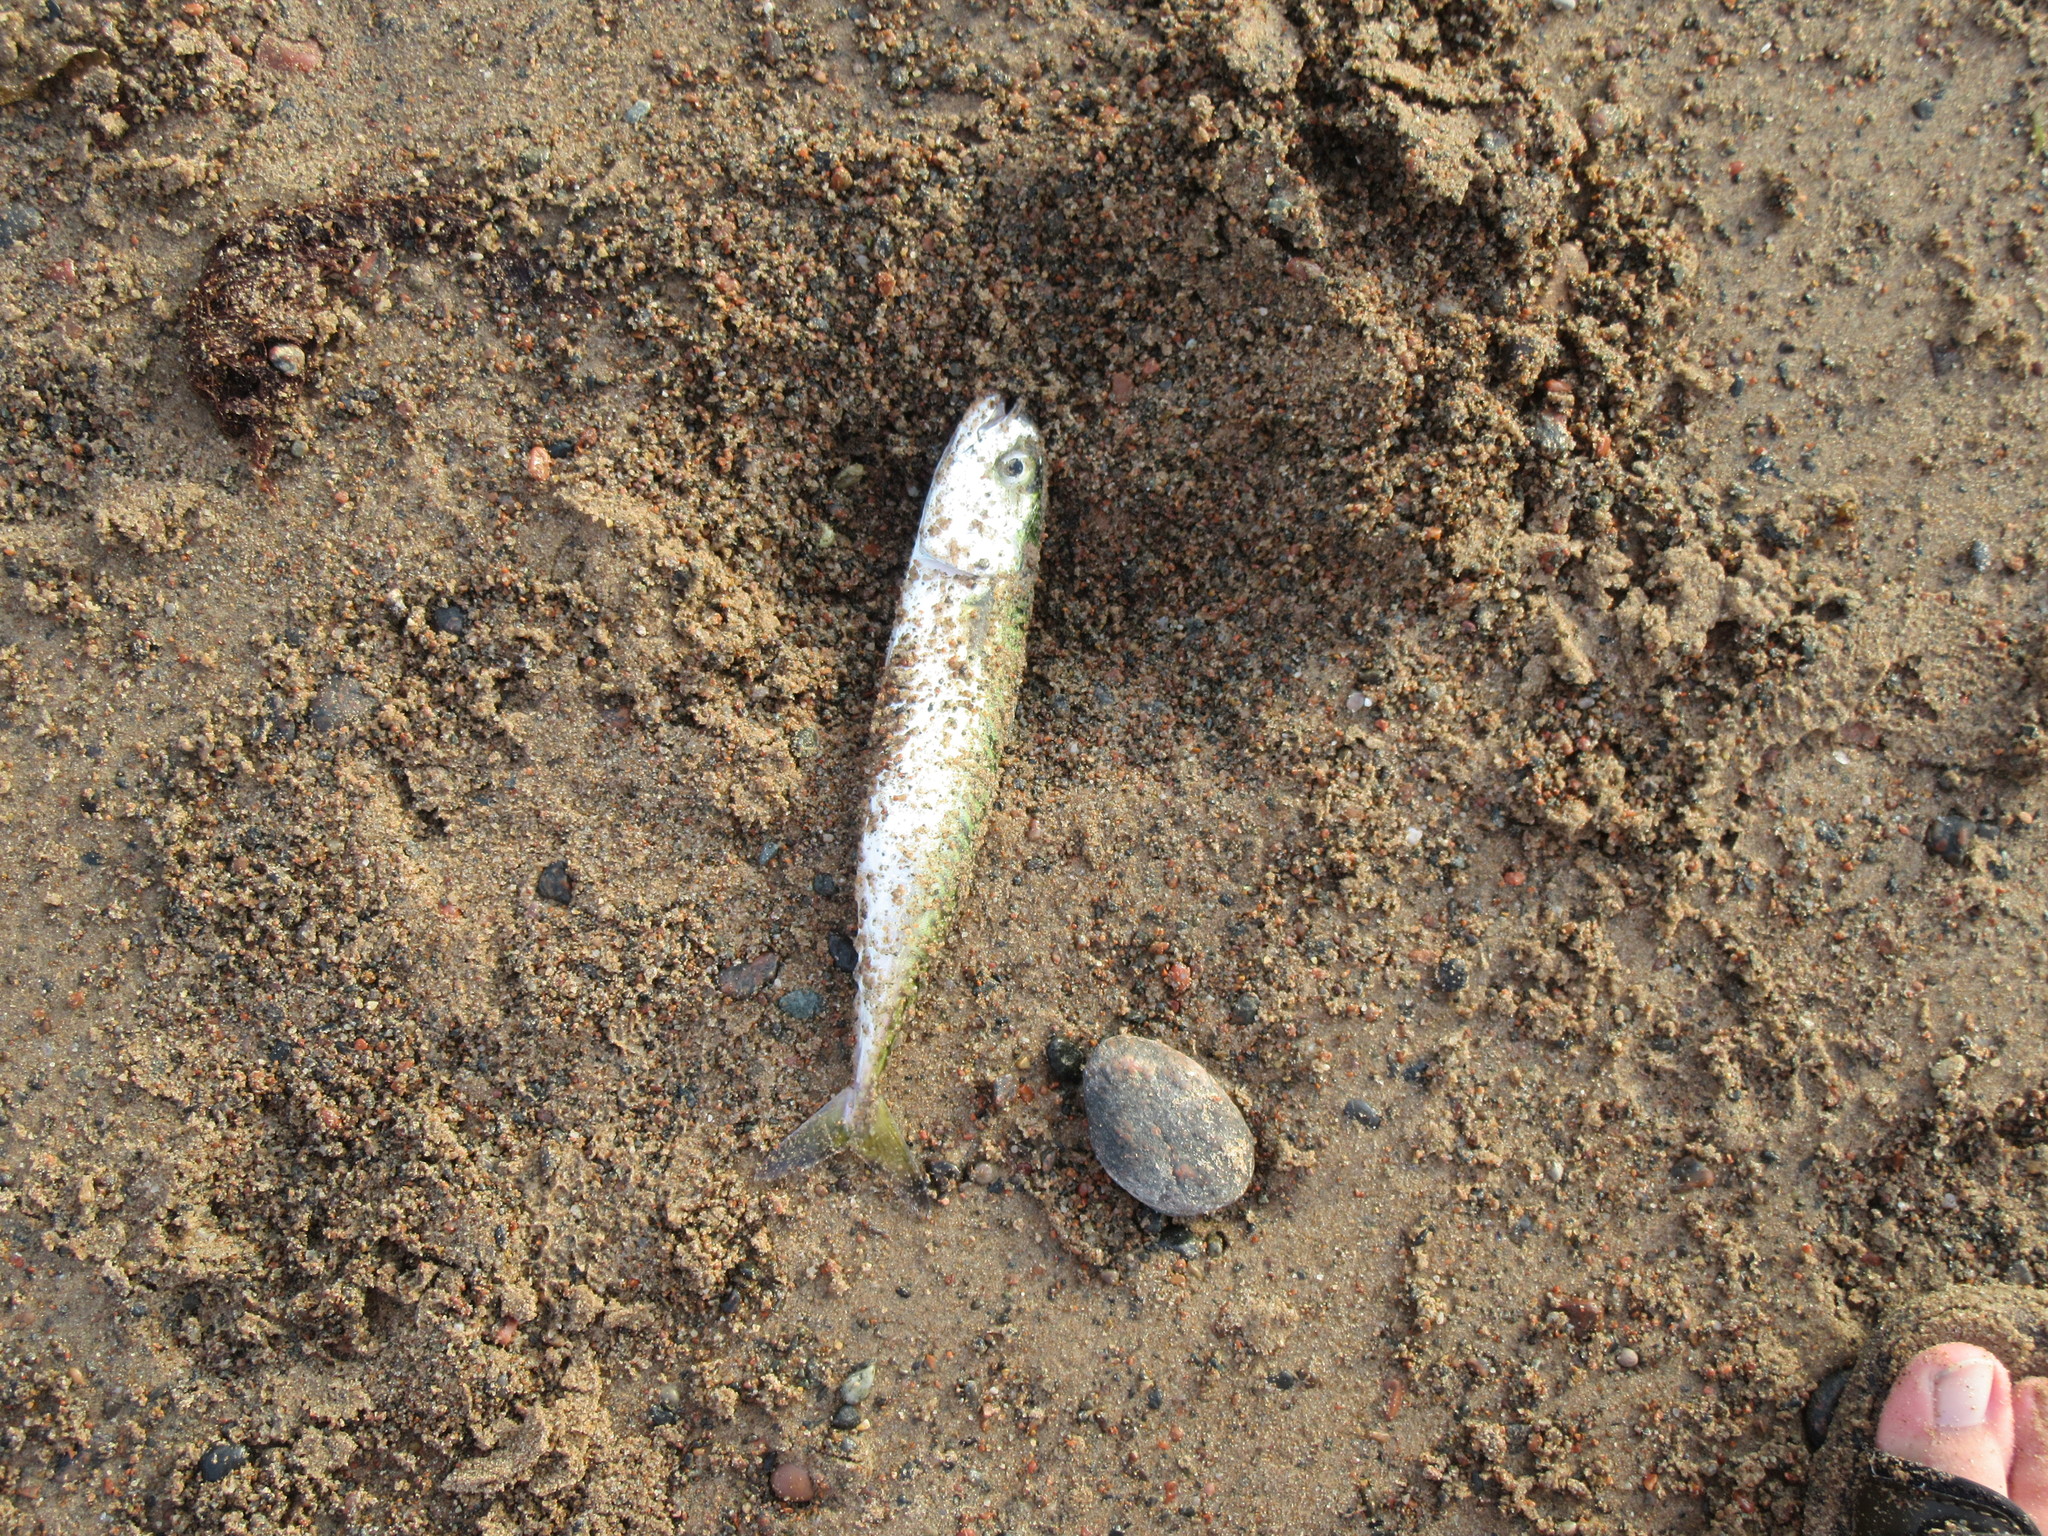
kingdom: Animalia
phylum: Chordata
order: Perciformes
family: Scombridae
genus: Scomber
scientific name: Scomber scombrus
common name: Mackerel
